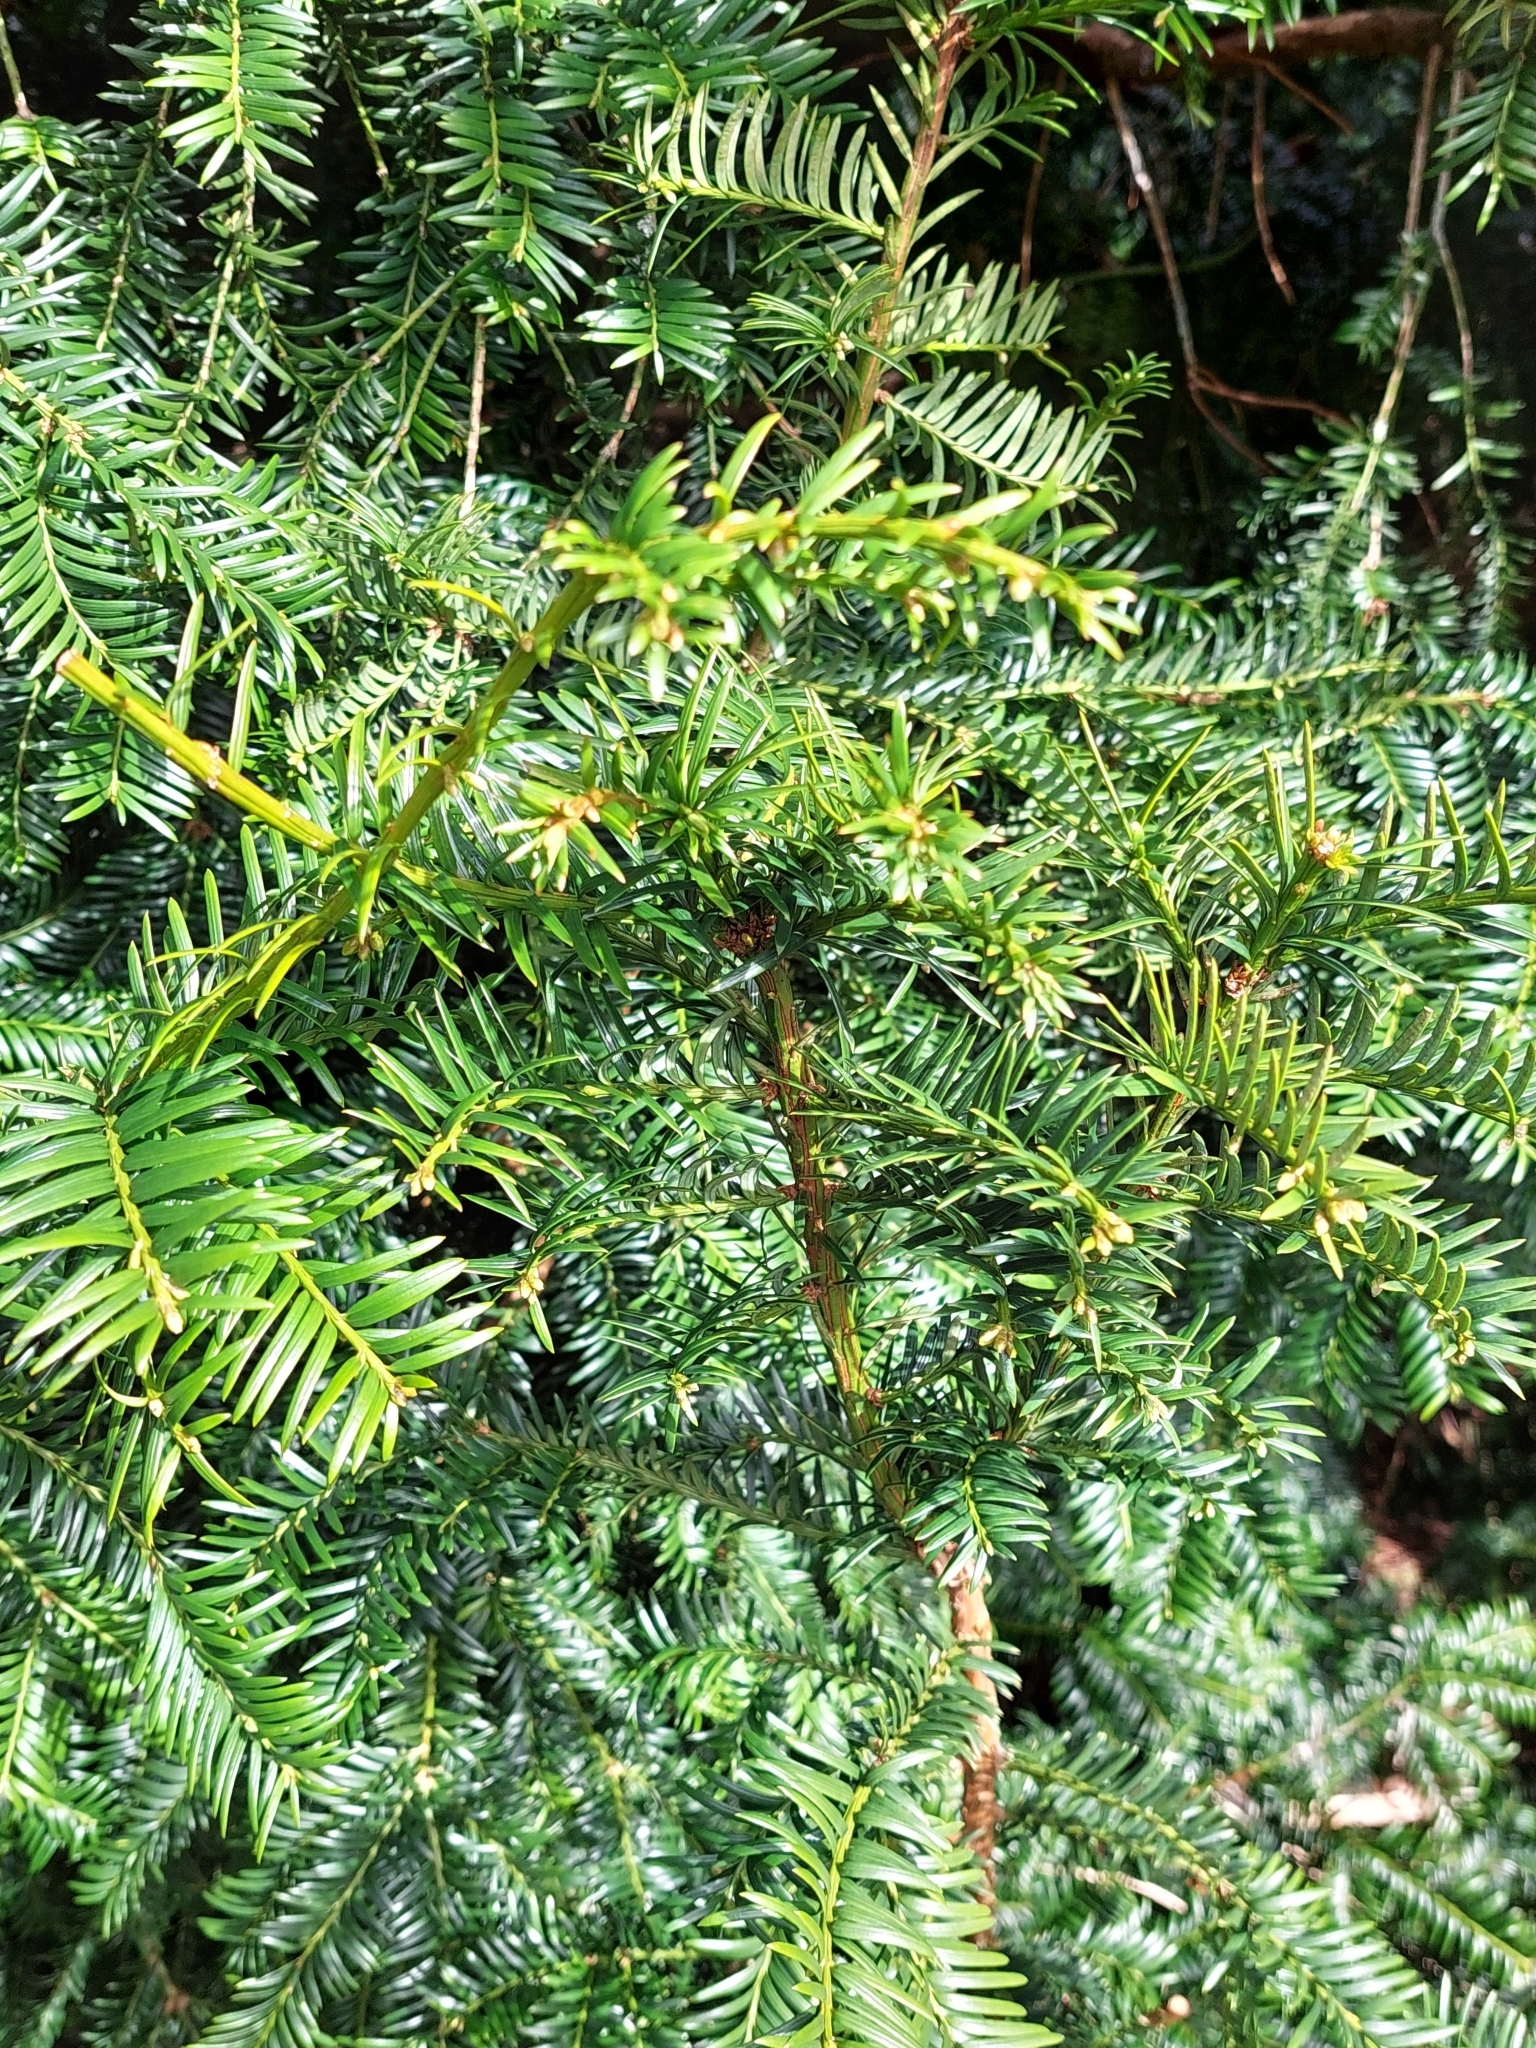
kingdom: Plantae
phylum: Tracheophyta
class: Pinopsida
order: Pinales
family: Taxaceae
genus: Taxus
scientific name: Taxus baccata
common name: Yew
